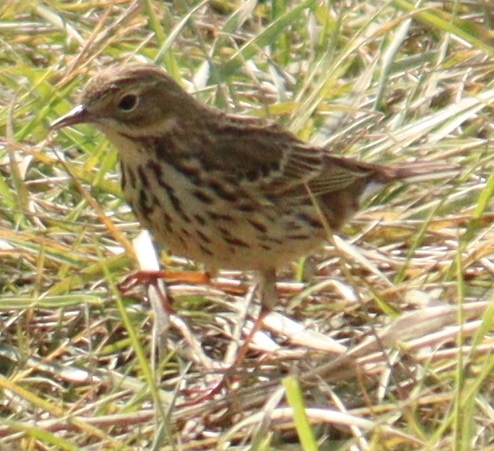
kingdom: Animalia
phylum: Chordata
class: Aves
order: Passeriformes
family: Motacillidae
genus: Anthus
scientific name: Anthus pratensis
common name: Meadow pipit
